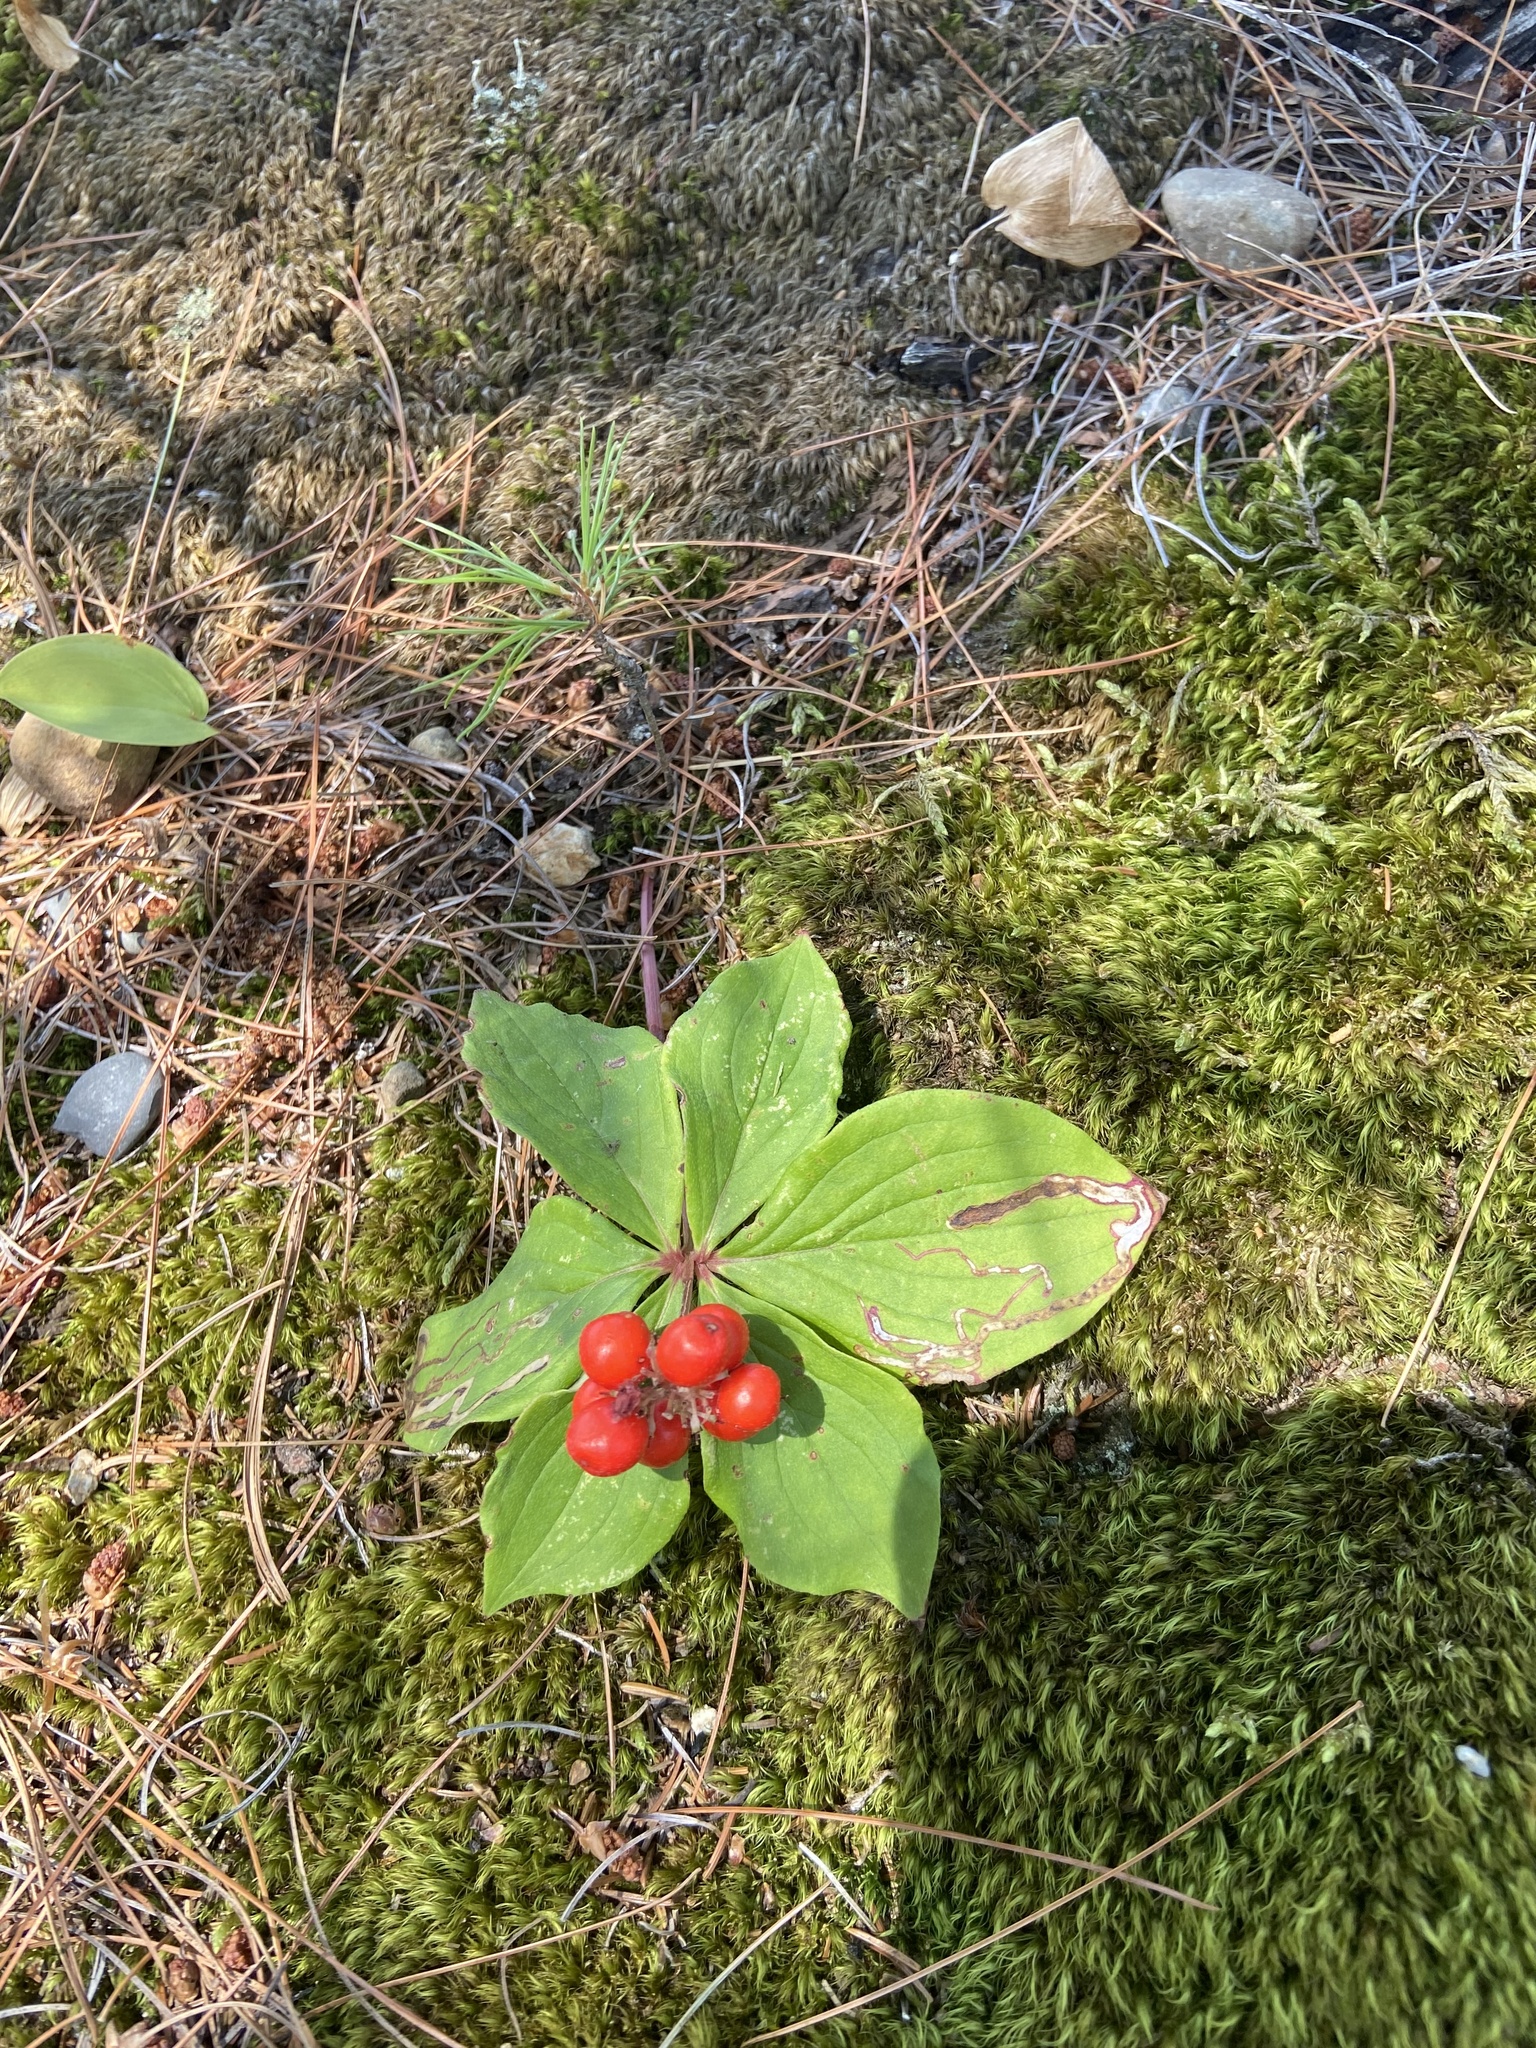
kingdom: Plantae
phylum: Tracheophyta
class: Magnoliopsida
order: Cornales
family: Cornaceae
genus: Cornus
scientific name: Cornus canadensis
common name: Creeping dogwood
